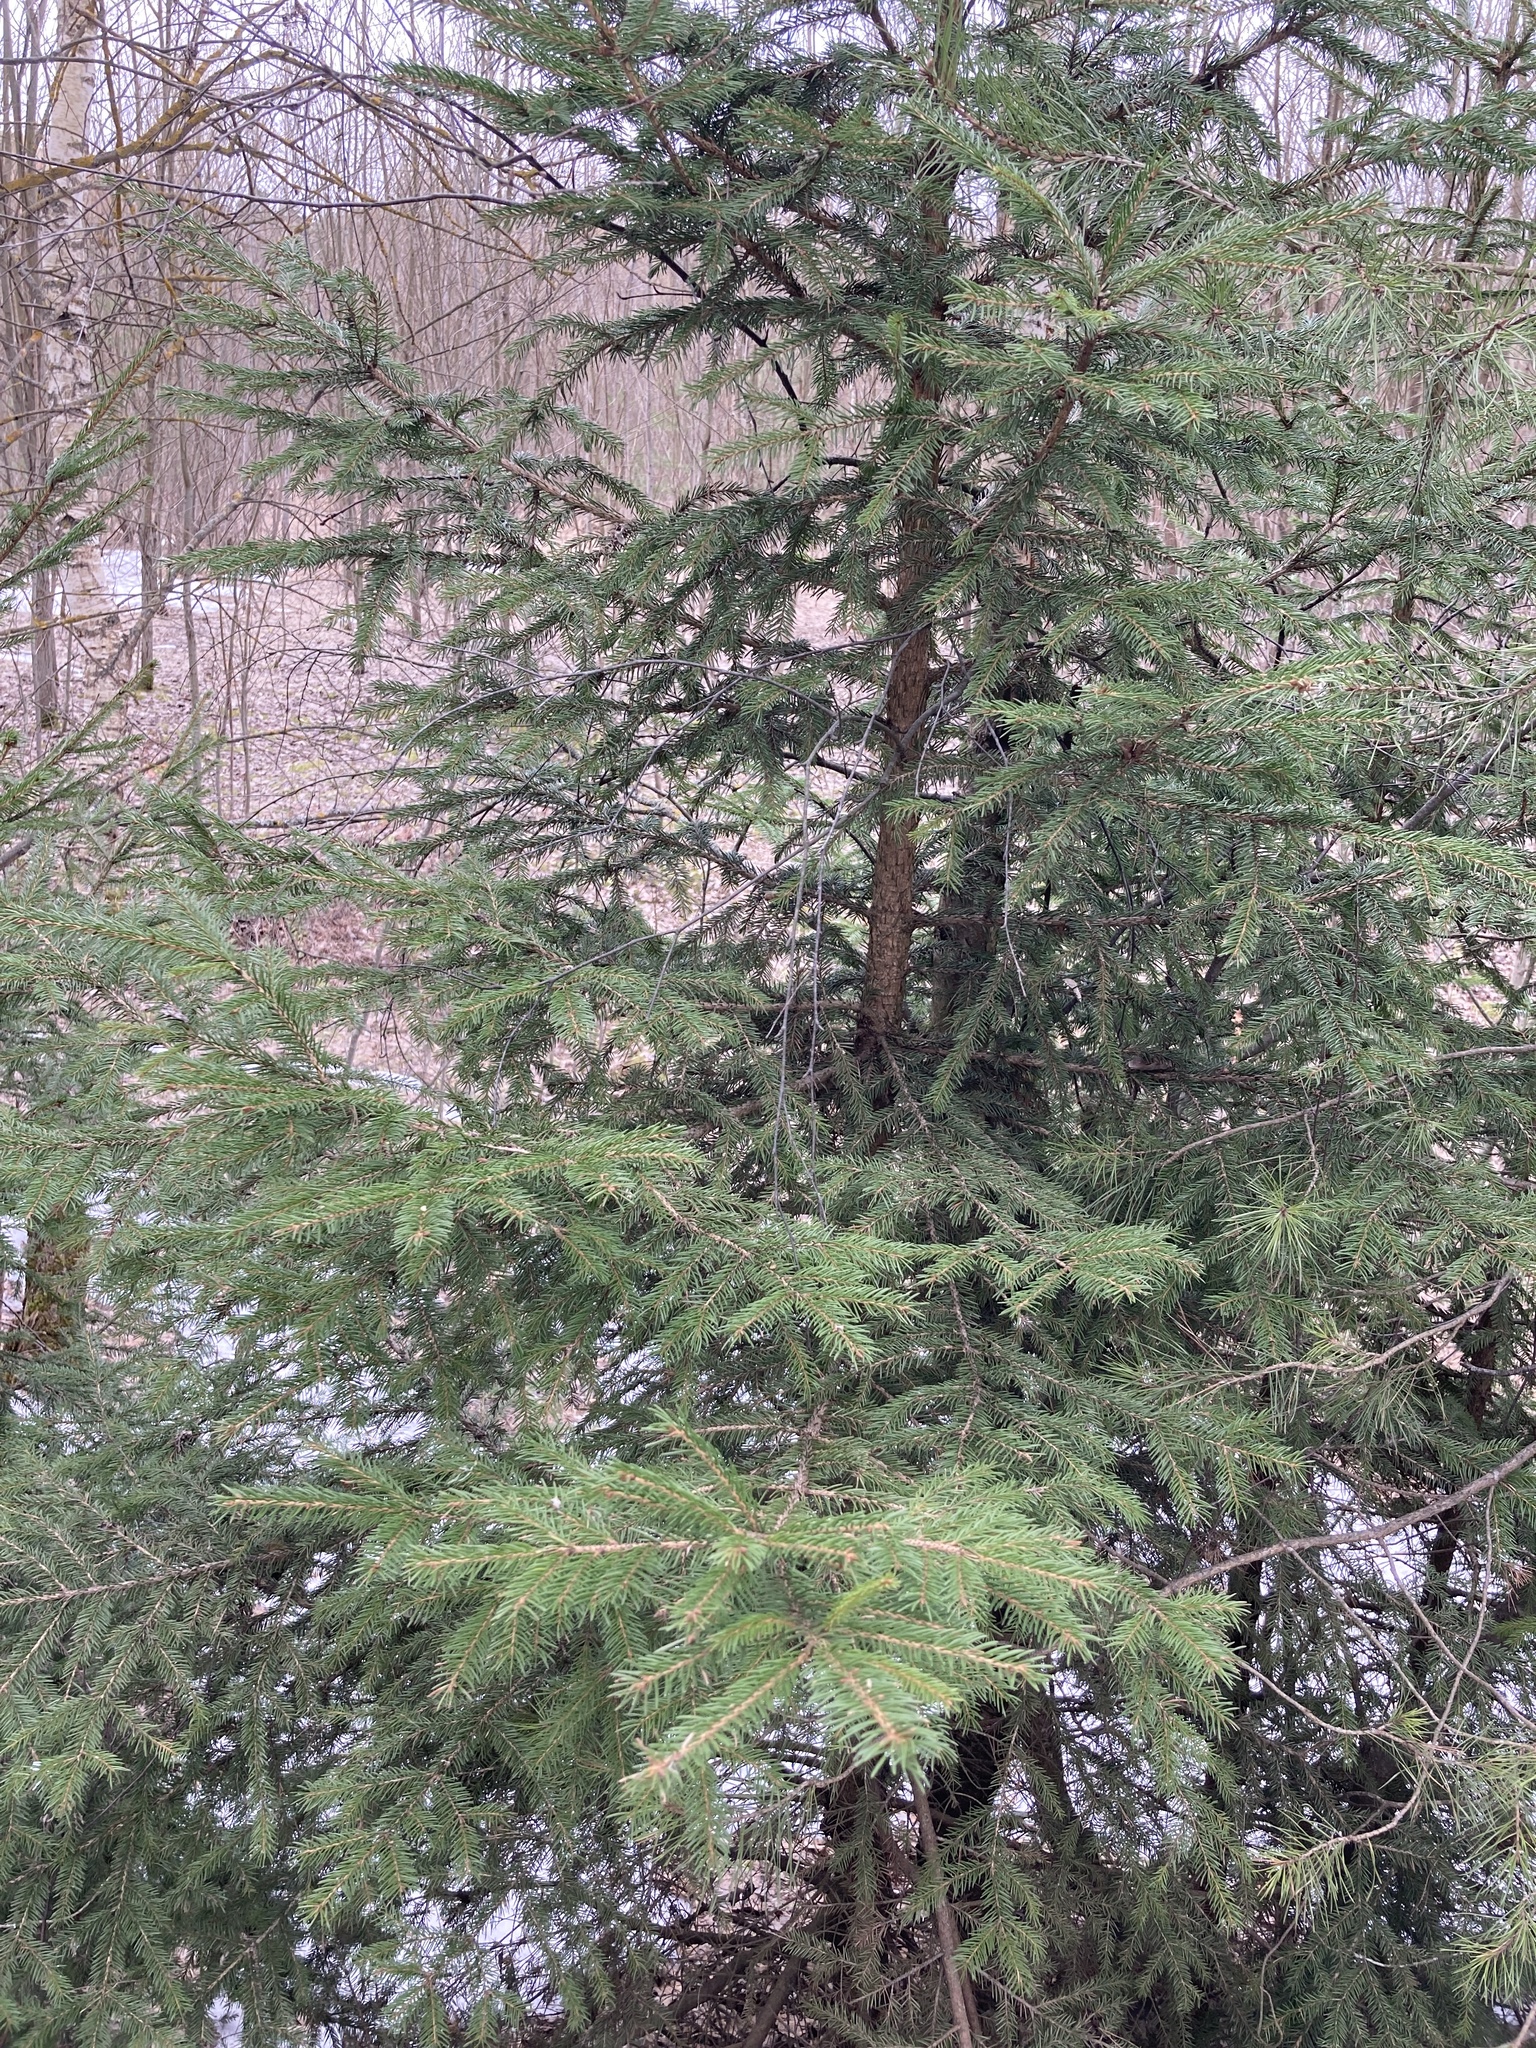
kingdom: Plantae
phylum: Tracheophyta
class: Pinopsida
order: Pinales
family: Pinaceae
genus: Picea
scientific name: Picea abies
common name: Norway spruce
